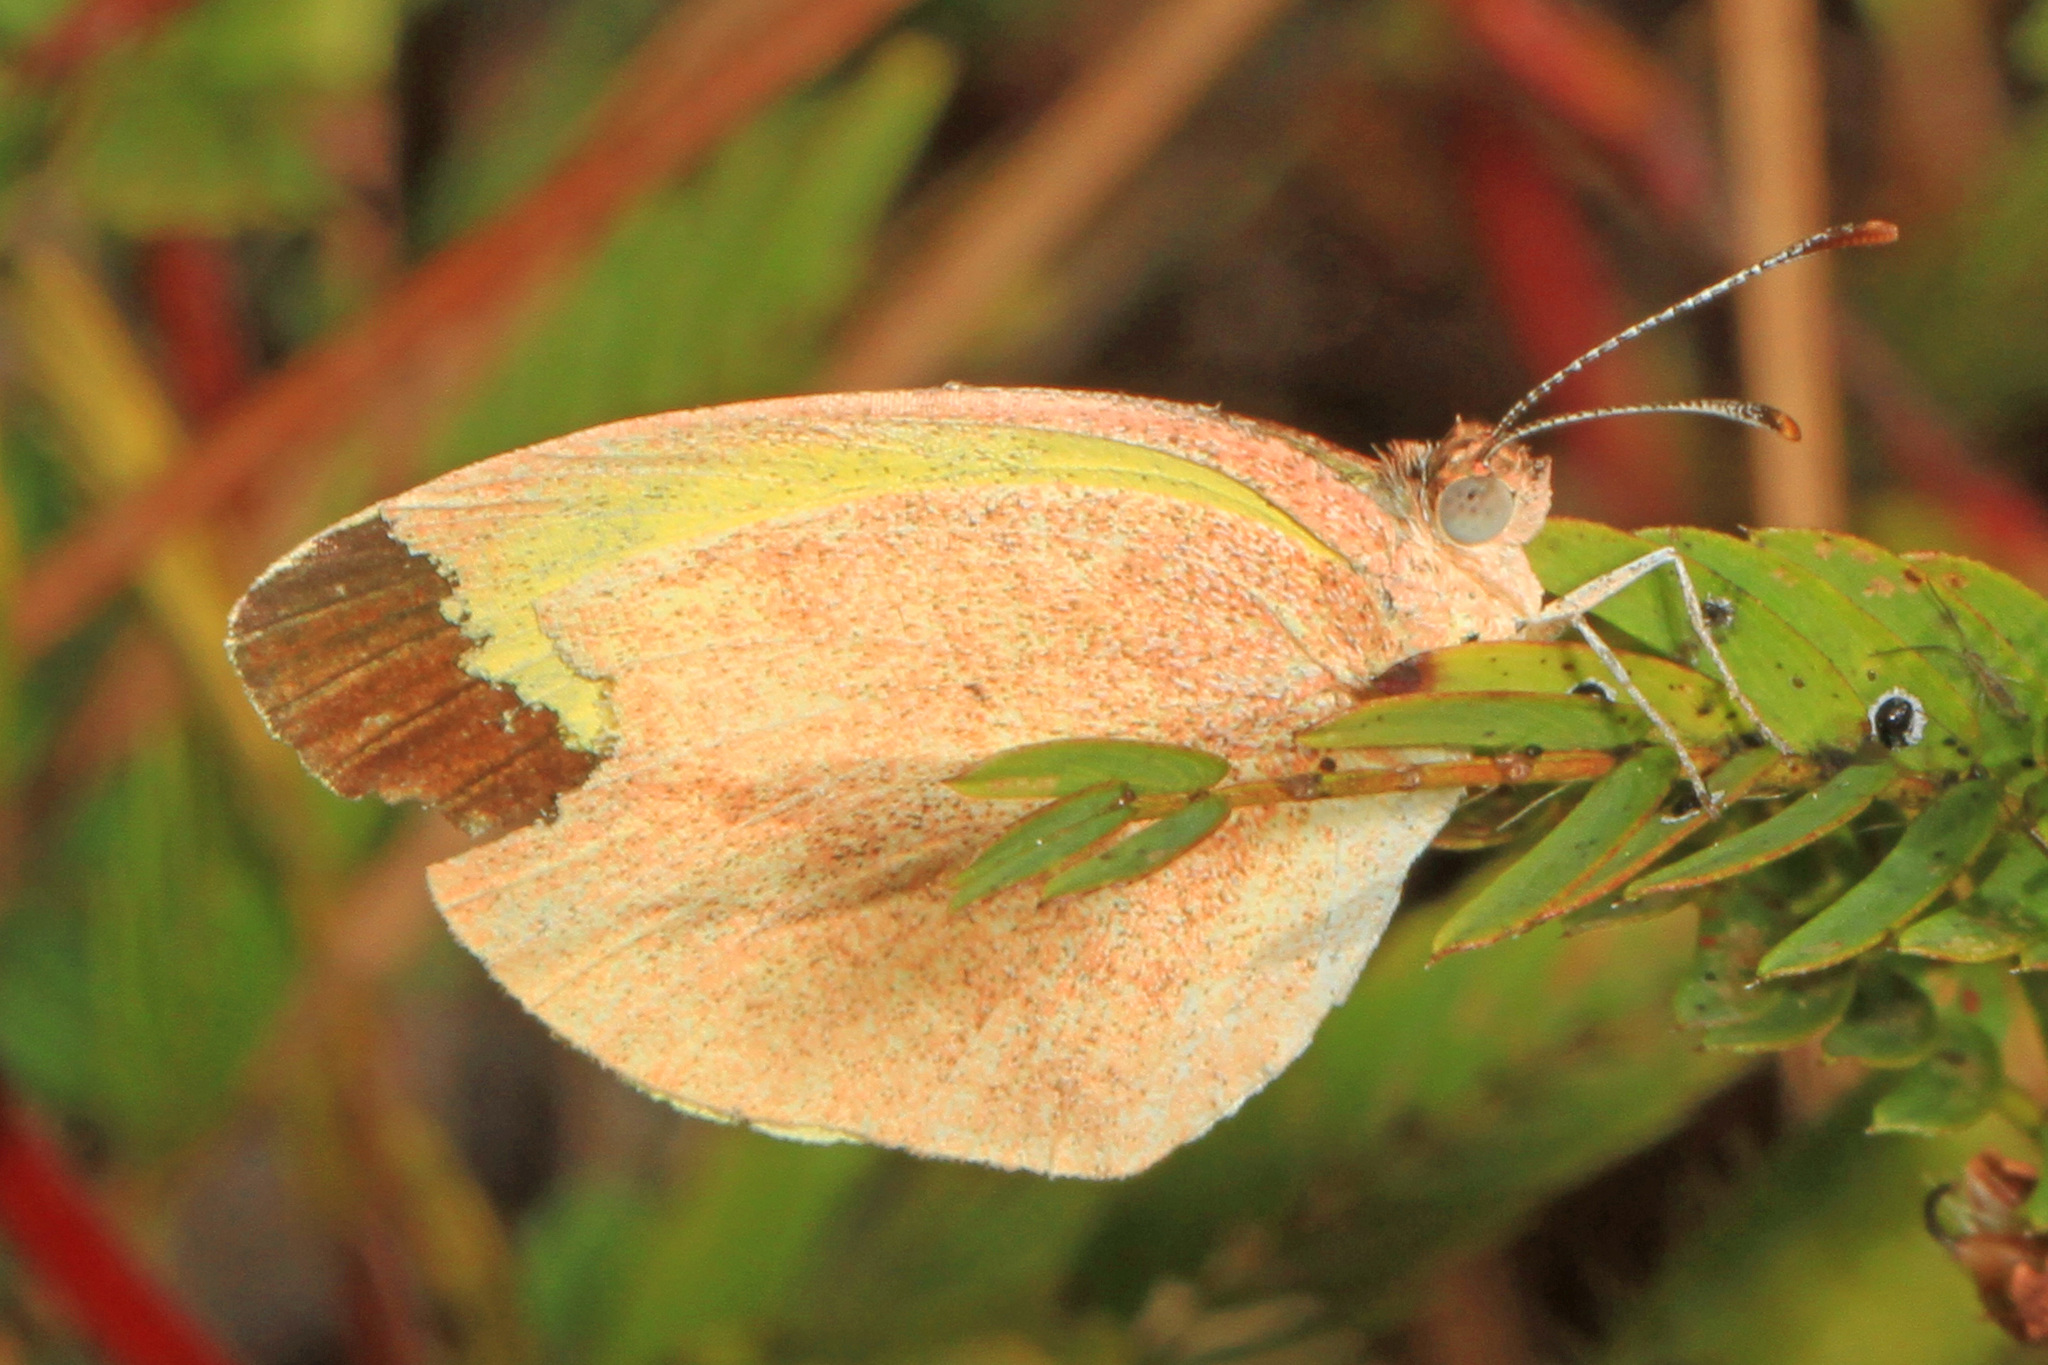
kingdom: Animalia
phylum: Arthropoda
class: Insecta
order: Lepidoptera
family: Pieridae
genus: Eurema
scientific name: Eurema daira
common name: Barred sulphur
